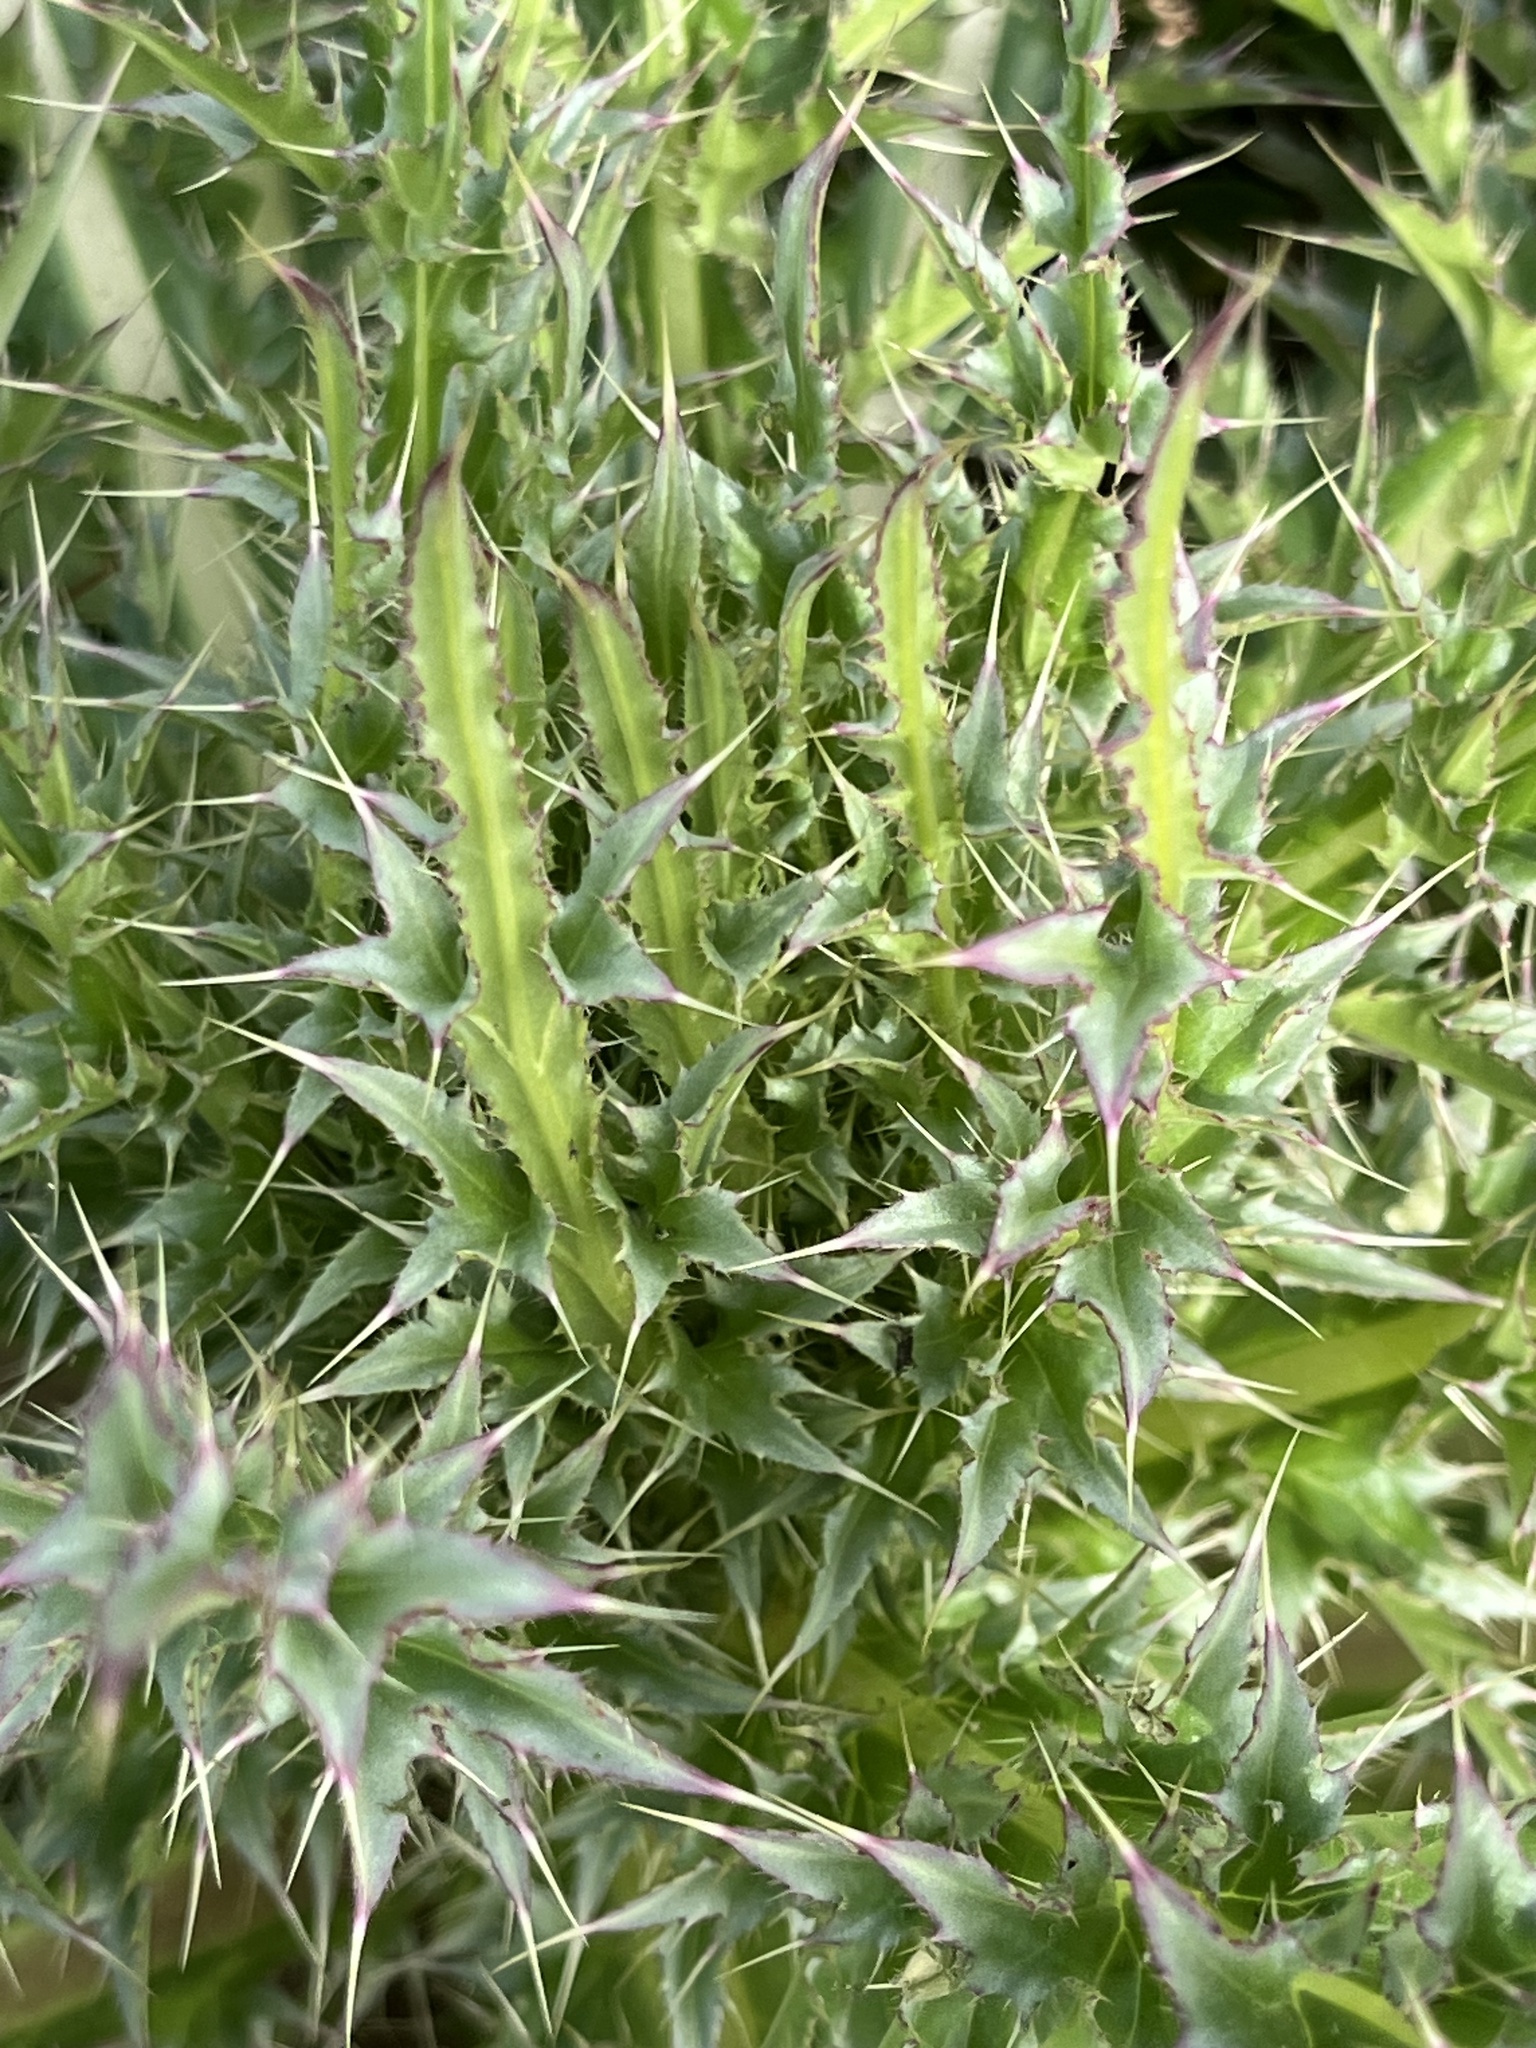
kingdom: Plantae
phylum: Tracheophyta
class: Magnoliopsida
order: Asterales
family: Asteraceae
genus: Cirsium
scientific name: Cirsium horridulum
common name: Bristly thistle
